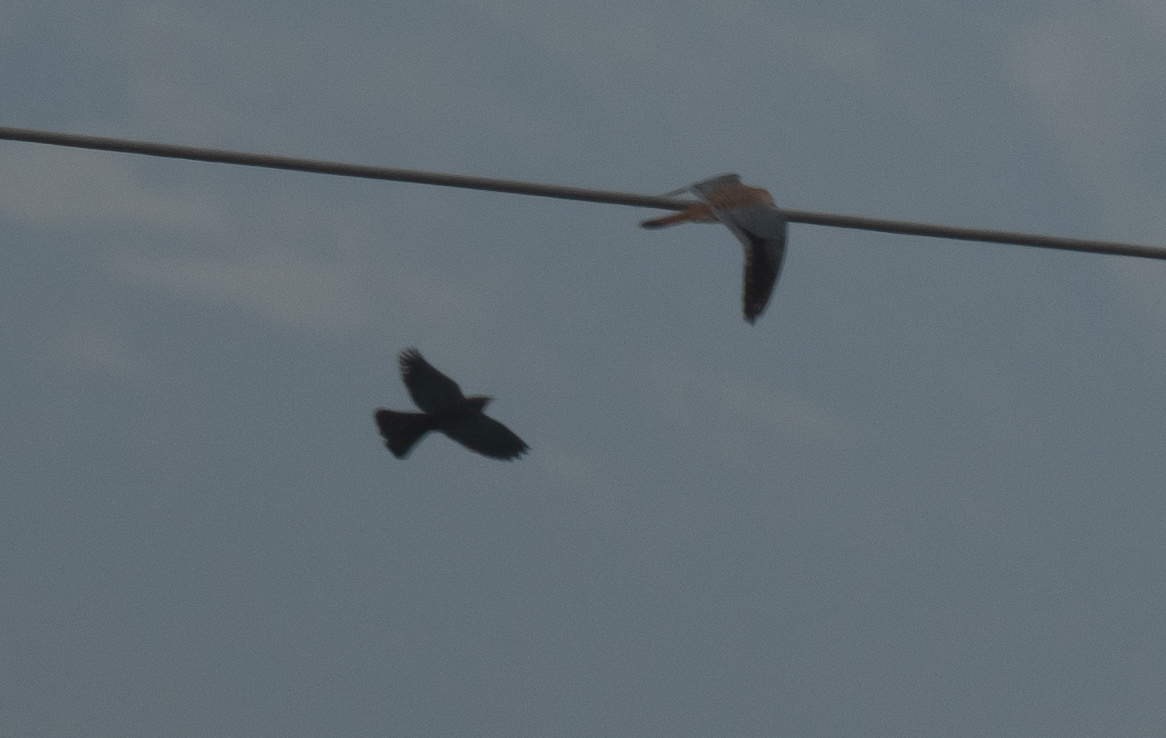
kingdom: Animalia
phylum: Chordata
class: Aves
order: Falconiformes
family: Falconidae
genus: Falco
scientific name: Falco sparverius
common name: American kestrel
